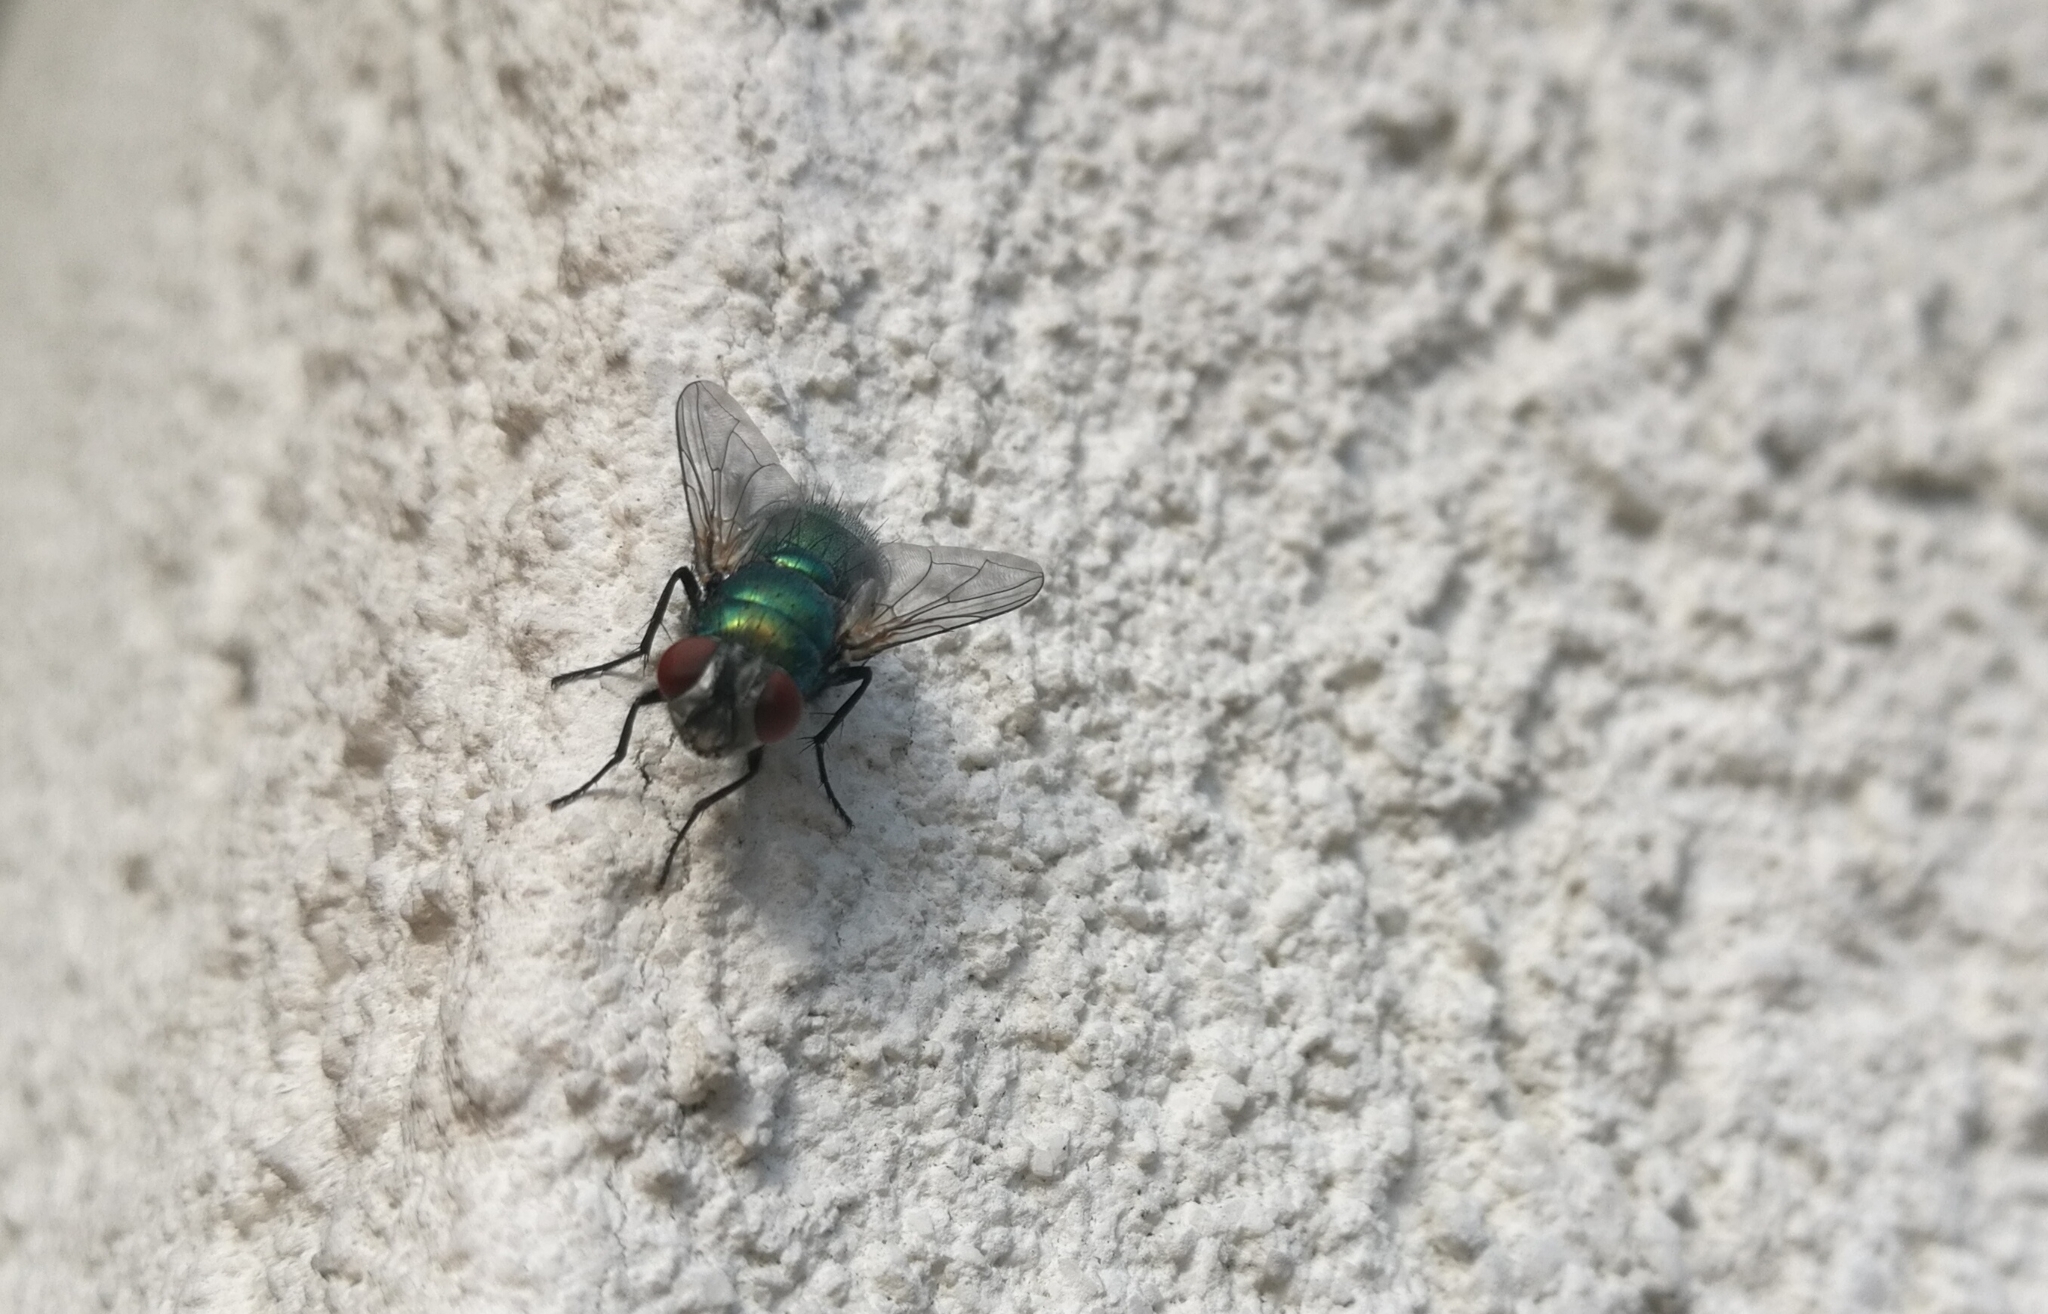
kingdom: Animalia
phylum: Arthropoda
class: Insecta
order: Diptera
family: Calliphoridae
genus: Lucilia
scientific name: Lucilia sericata
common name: Blow fly
